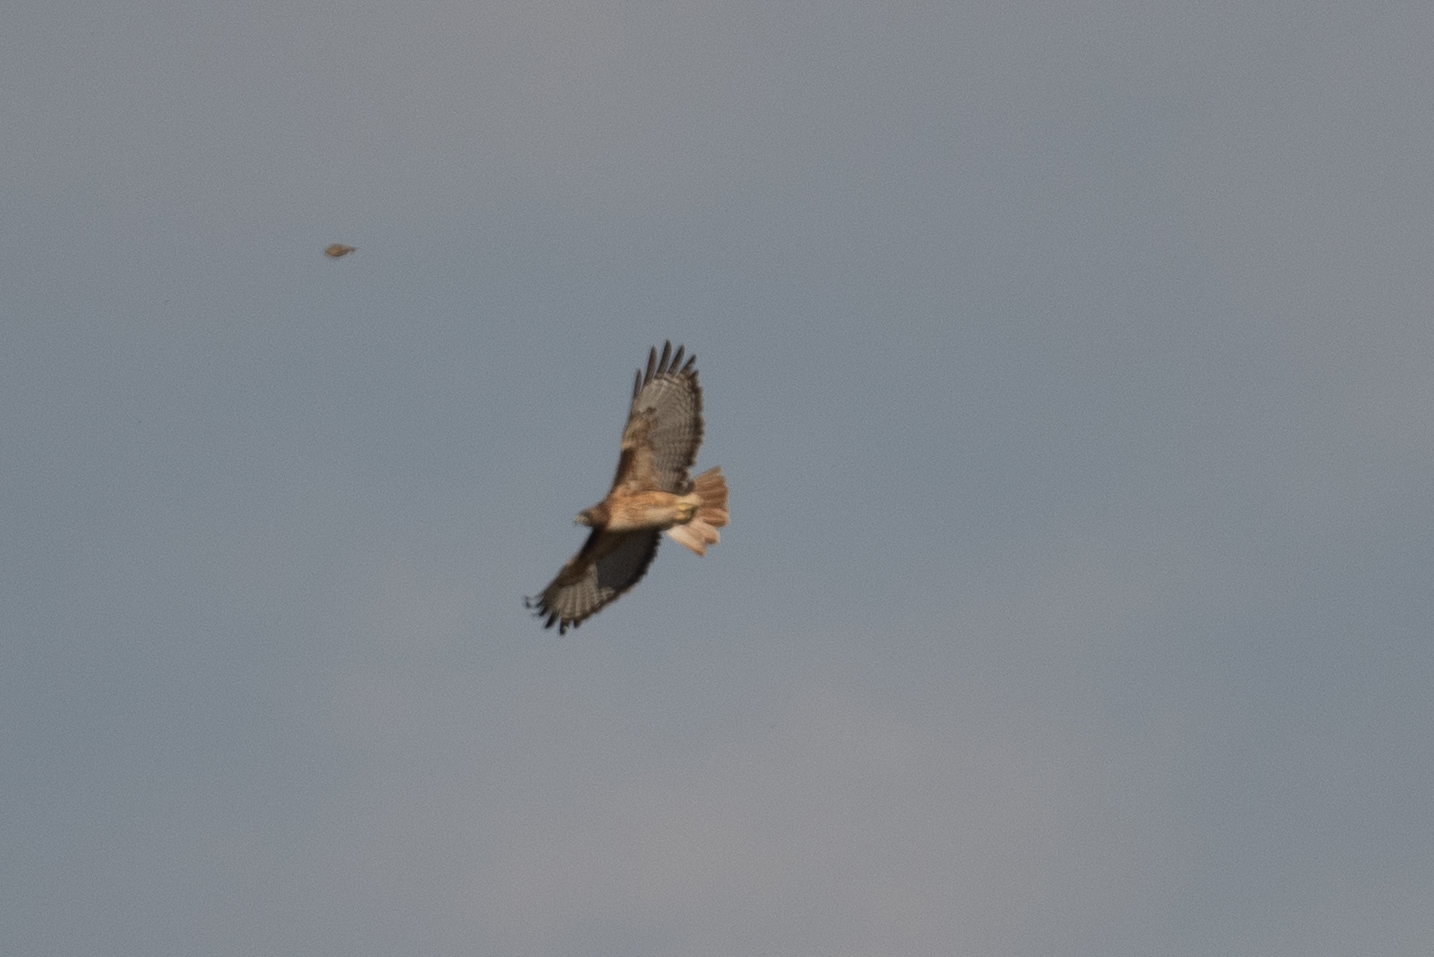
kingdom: Animalia
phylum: Chordata
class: Aves
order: Accipitriformes
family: Accipitridae
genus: Buteo
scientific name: Buteo jamaicensis
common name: Red-tailed hawk
